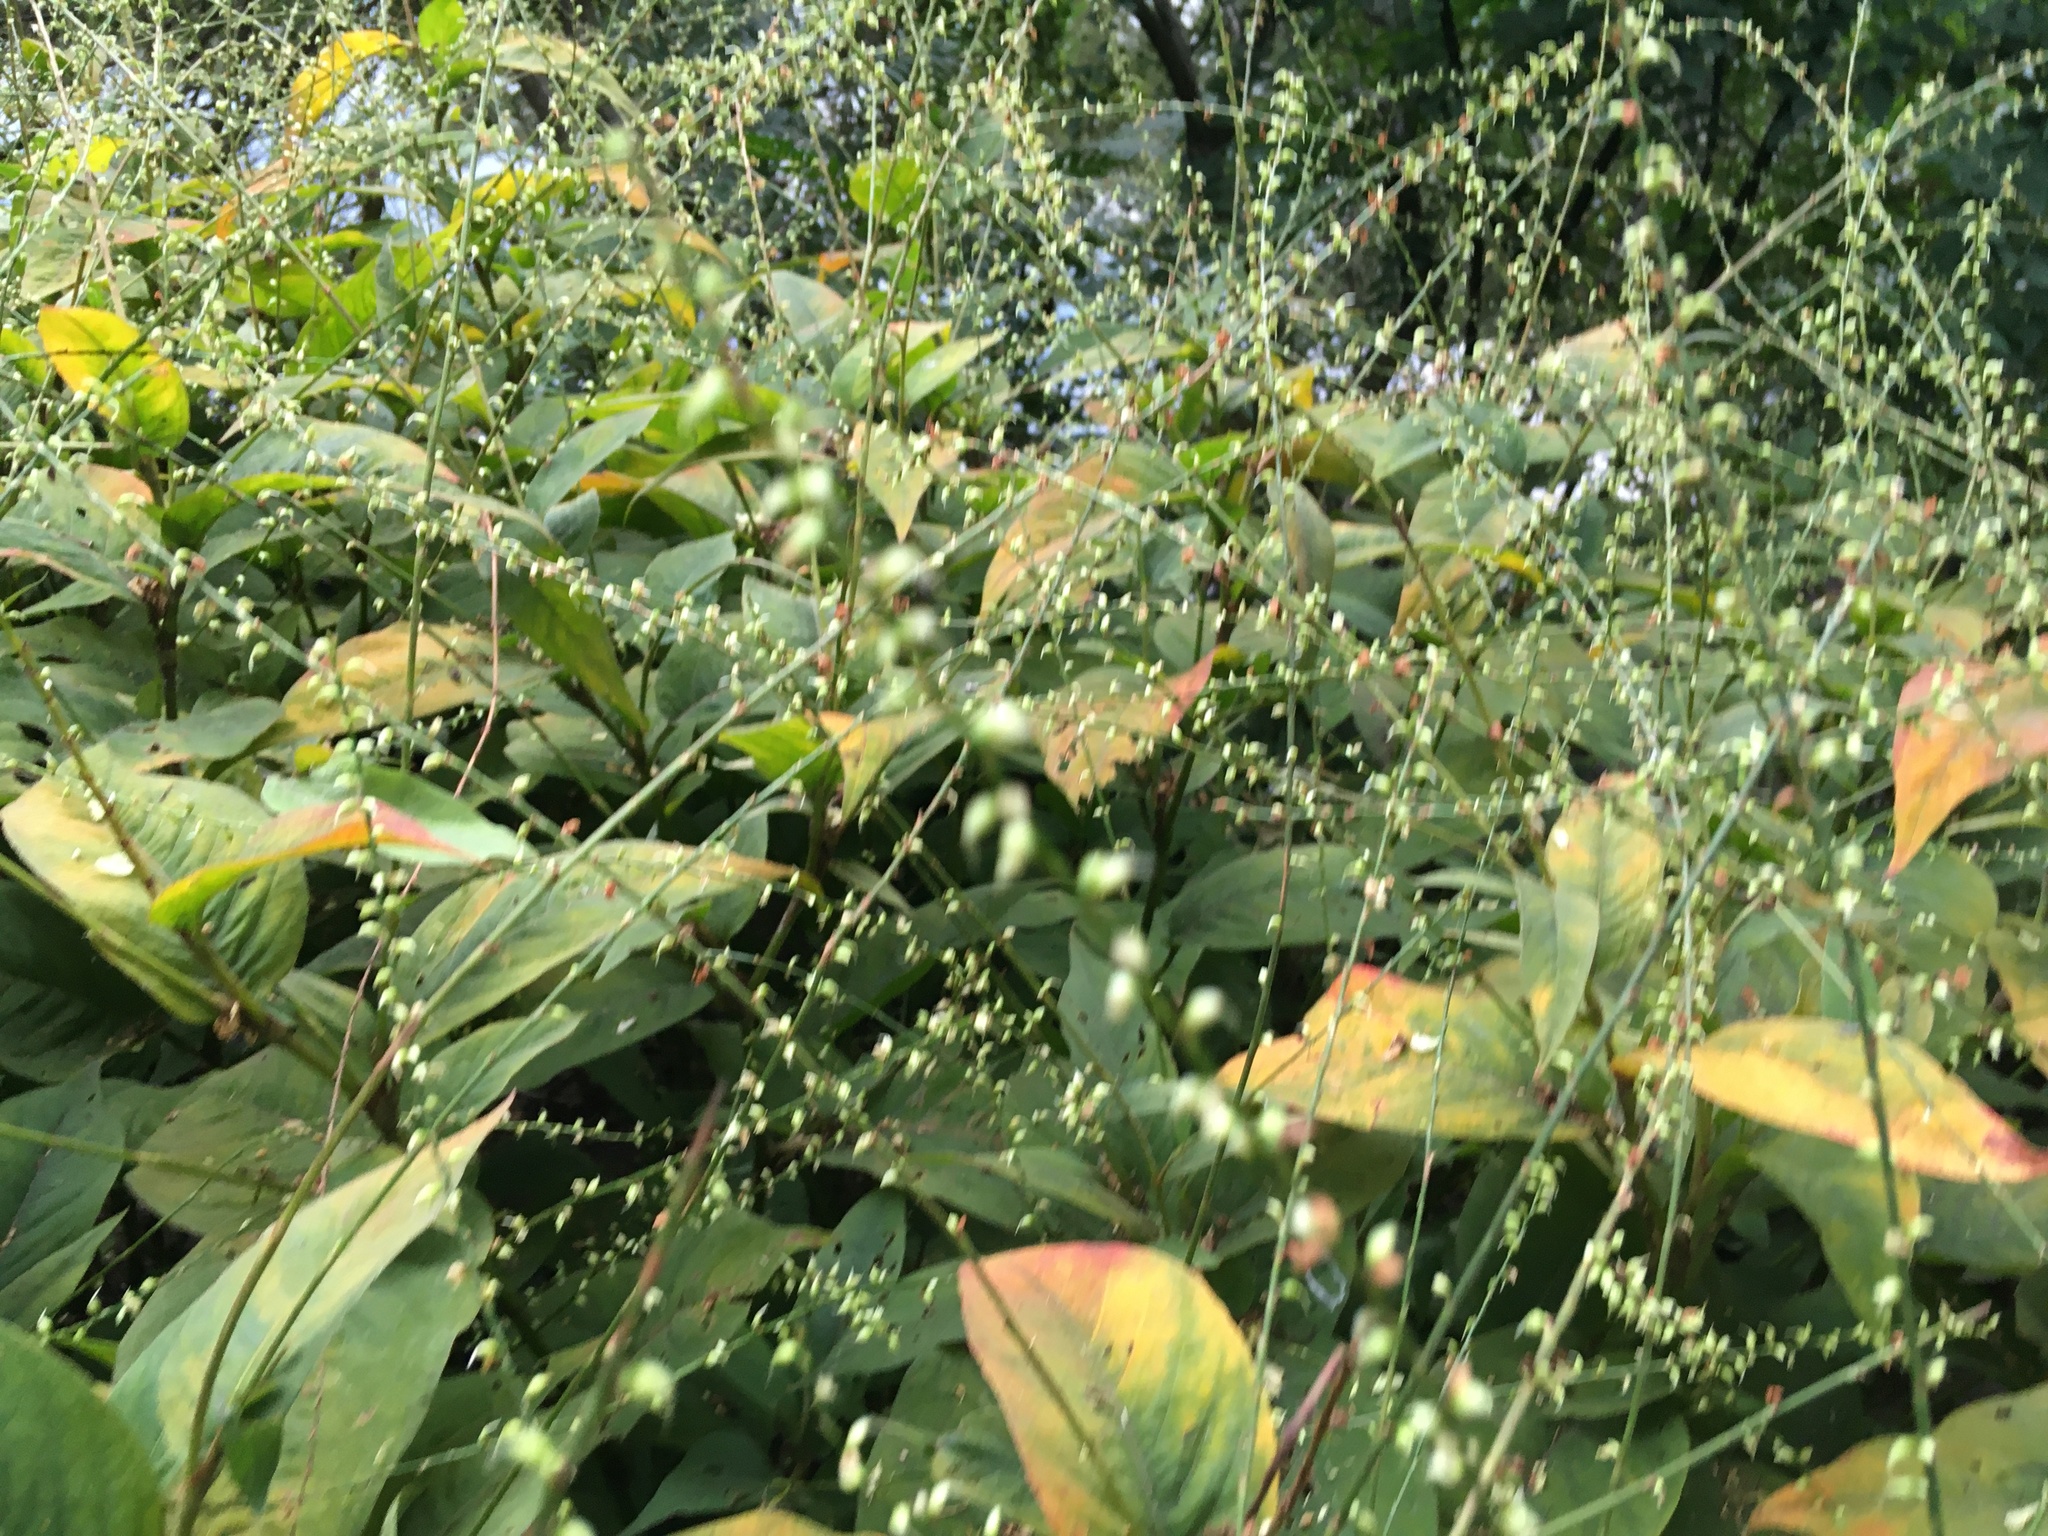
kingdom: Plantae
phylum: Tracheophyta
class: Magnoliopsida
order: Caryophyllales
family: Polygonaceae
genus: Persicaria
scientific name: Persicaria virginiana
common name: Jumpseed
